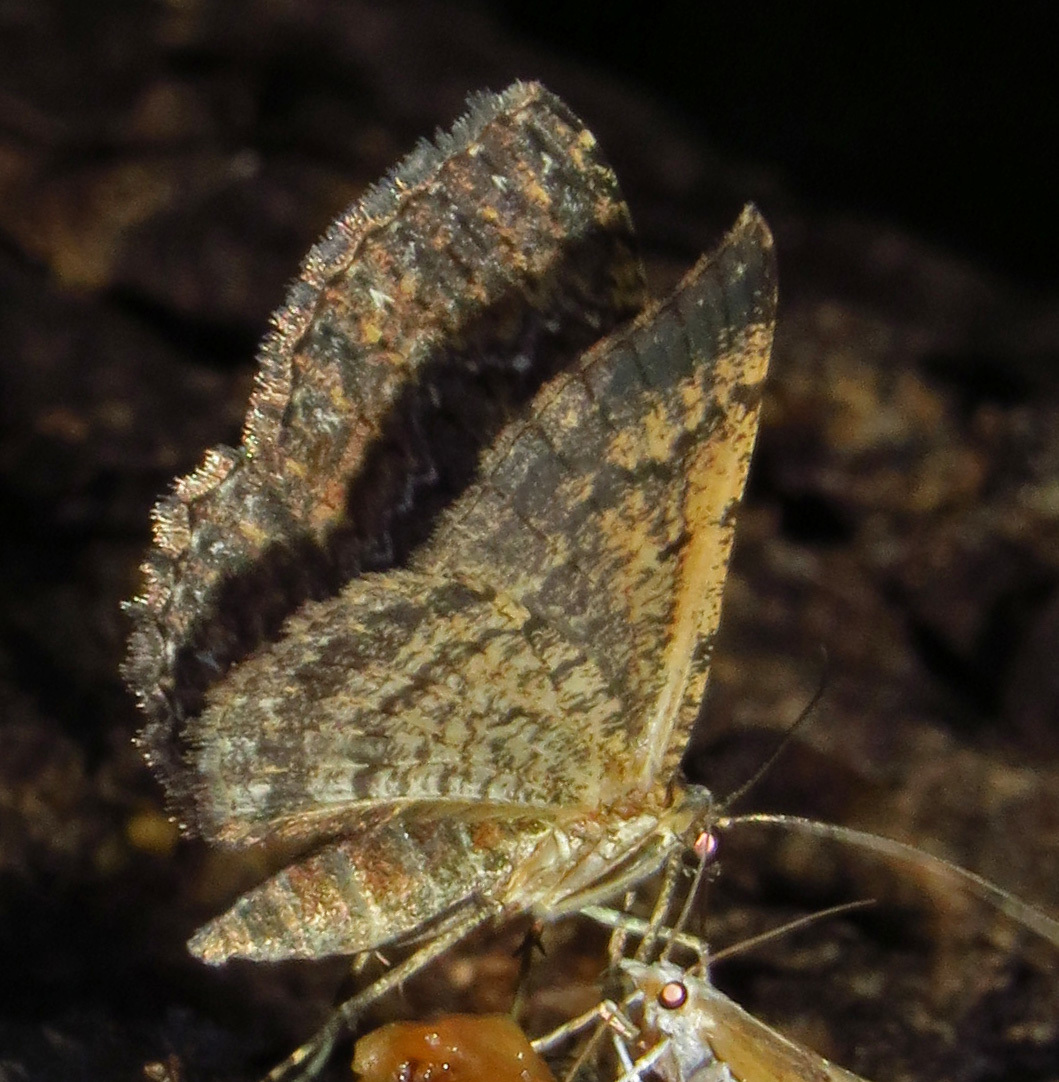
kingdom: Animalia
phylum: Arthropoda
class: Insecta
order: Lepidoptera
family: Geometridae
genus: Disclisioprocta
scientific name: Disclisioprocta stellata
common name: Somber carpet
